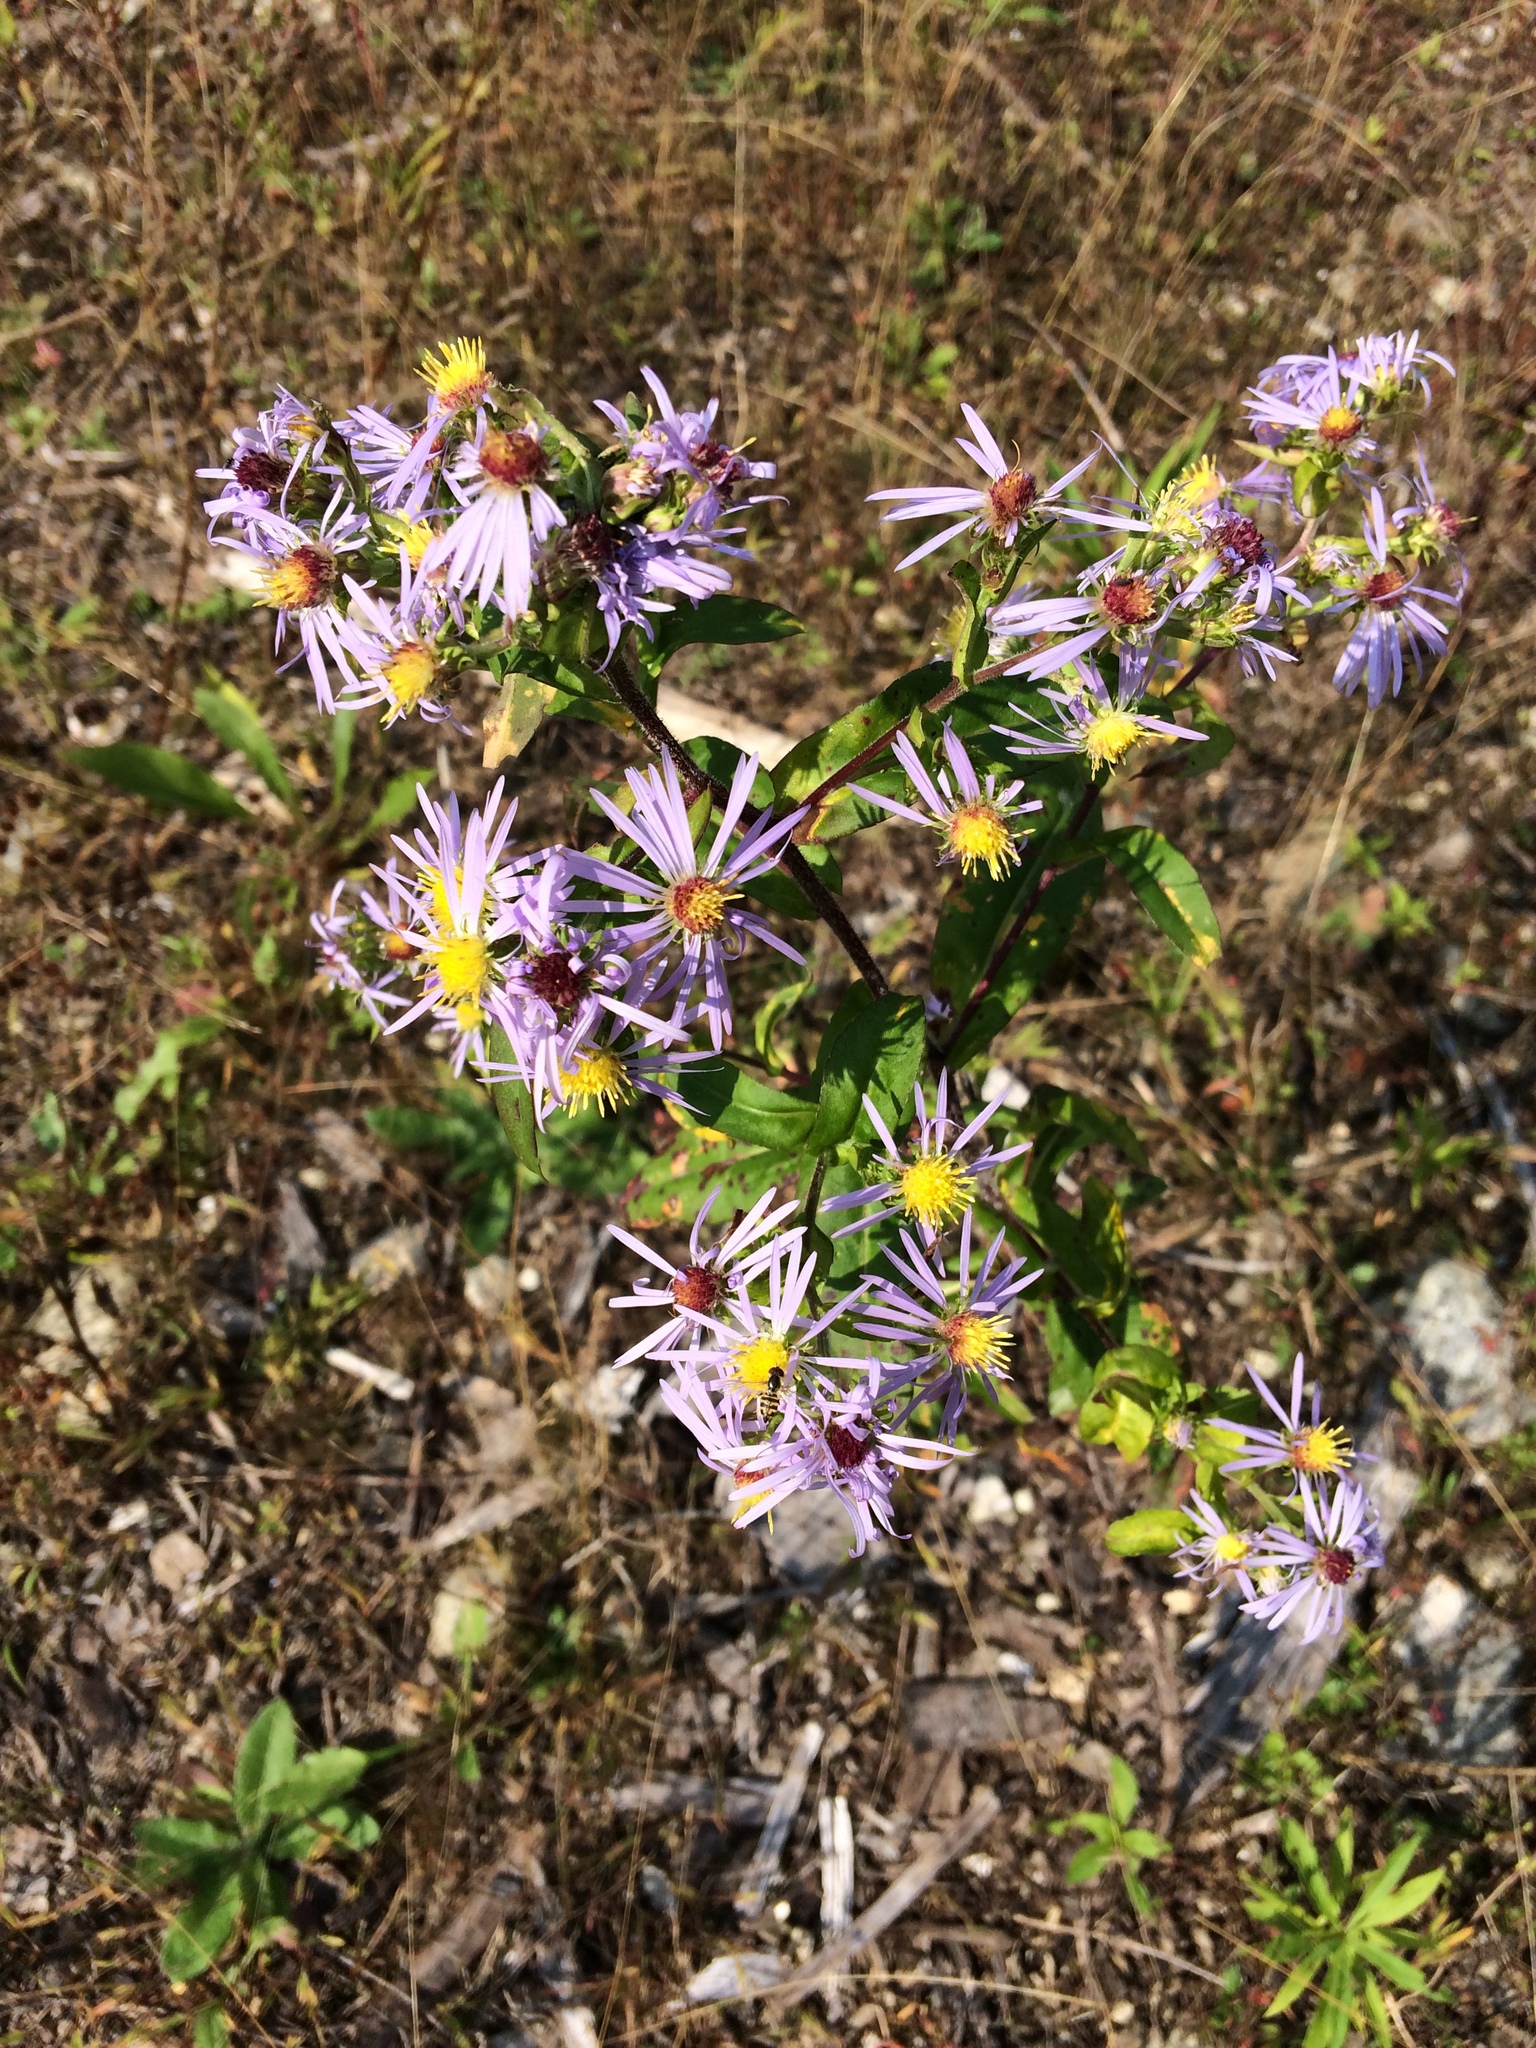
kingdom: Plantae
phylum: Tracheophyta
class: Magnoliopsida
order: Asterales
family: Asteraceae
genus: Symphyotrichum
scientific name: Symphyotrichum puniceum
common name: Bog aster
